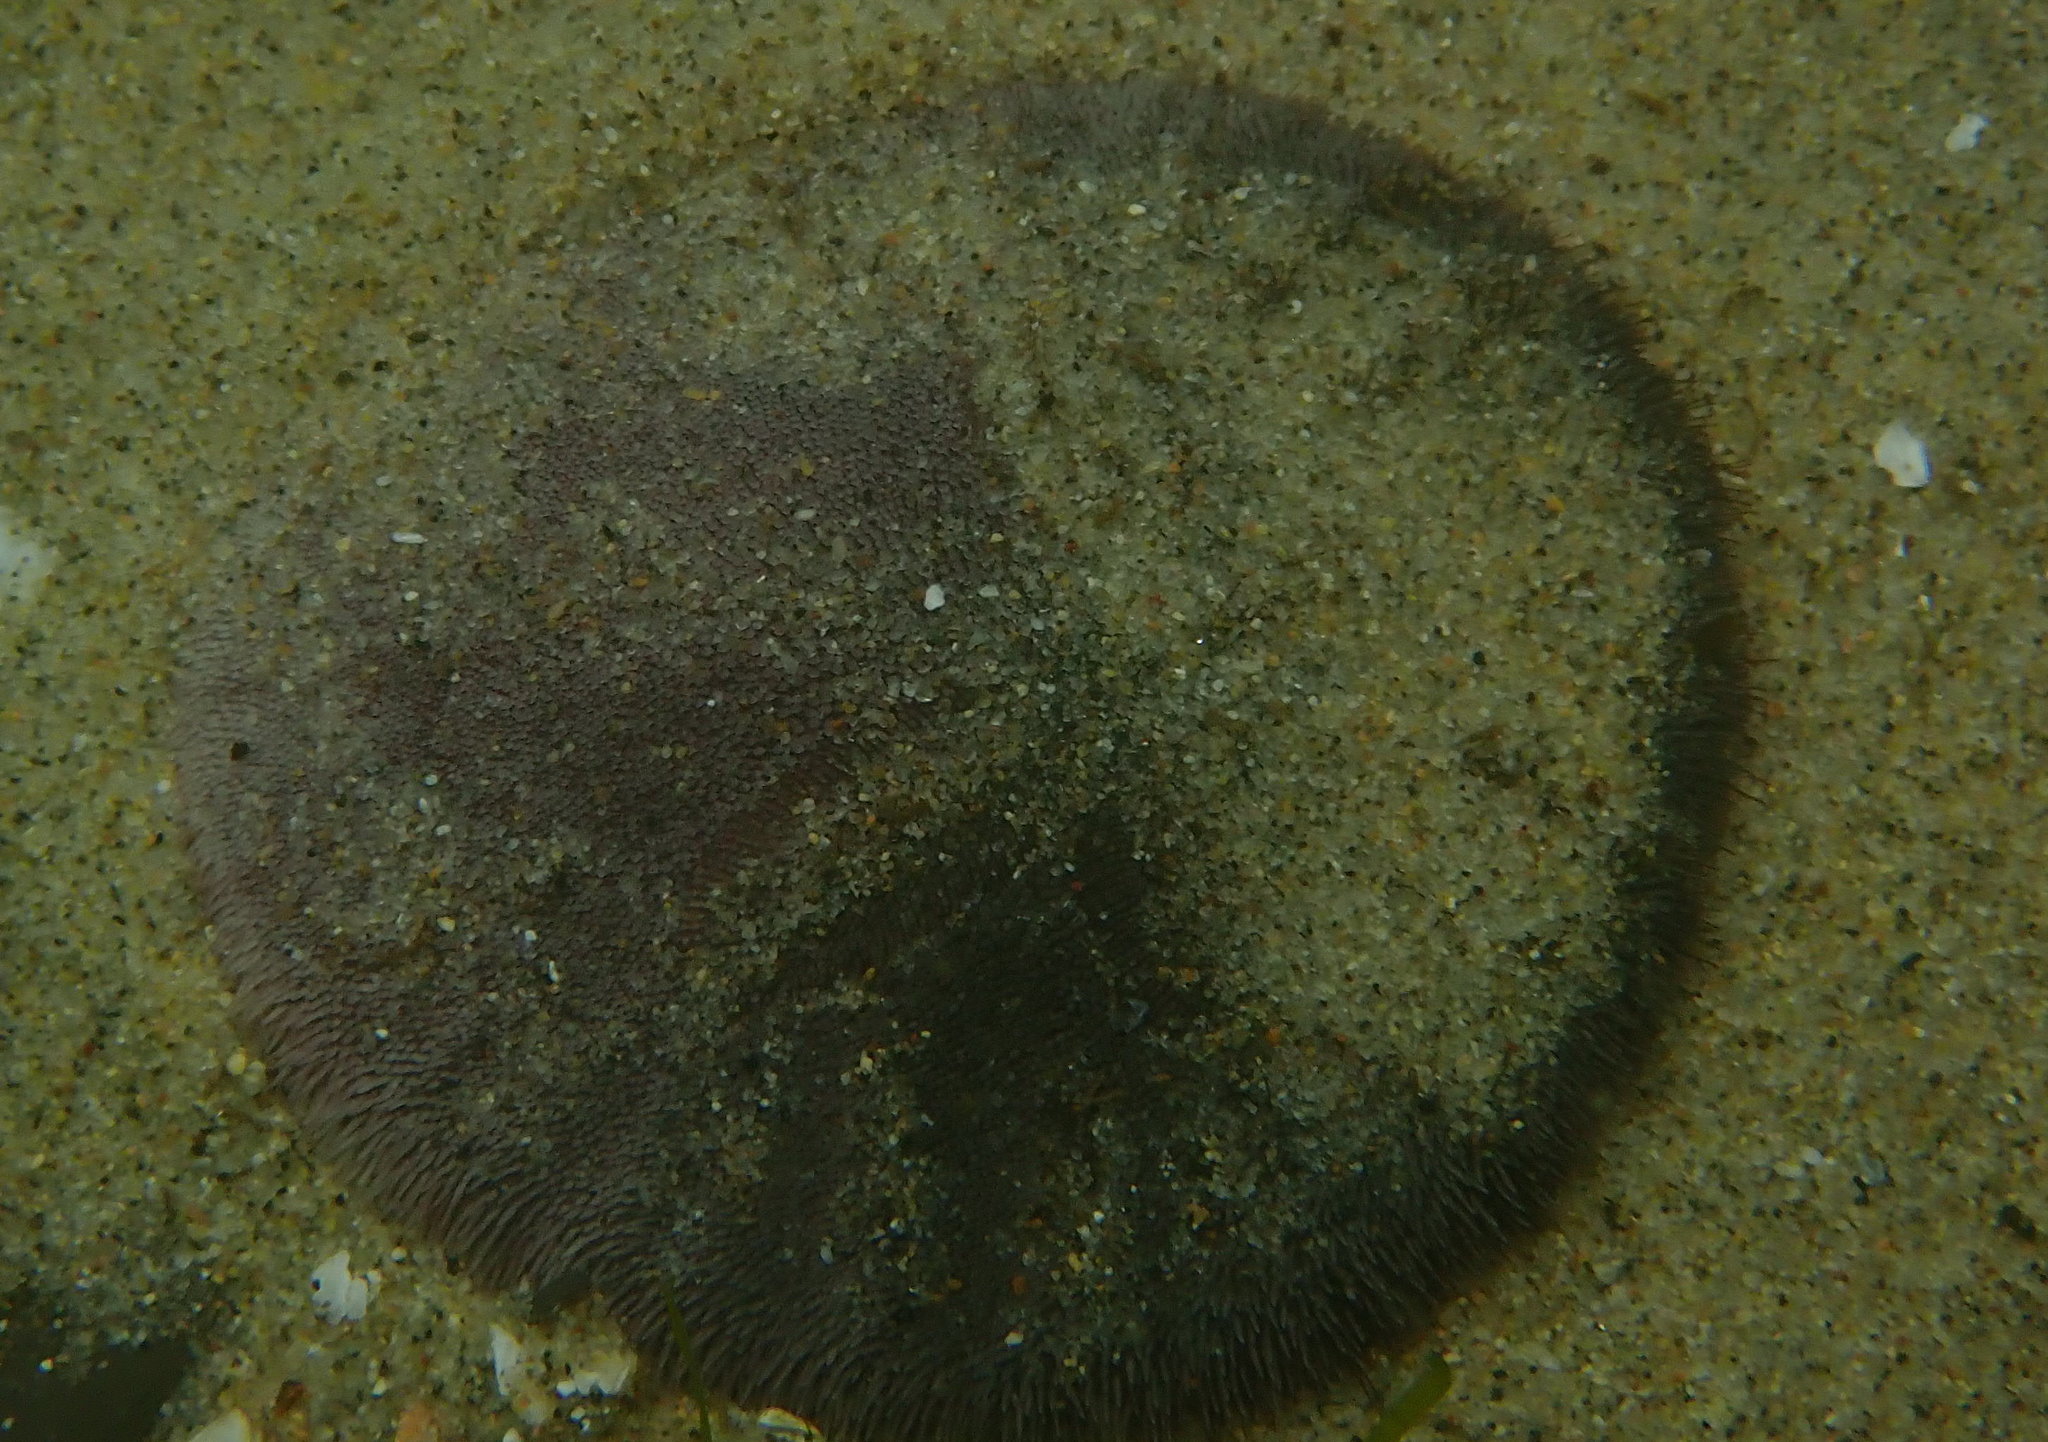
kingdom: Animalia
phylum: Echinodermata
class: Echinoidea
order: Echinolampadacea
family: Dendrasteridae
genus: Dendraster
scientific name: Dendraster excentricus
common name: Eccentric sand dollar sea urchin
